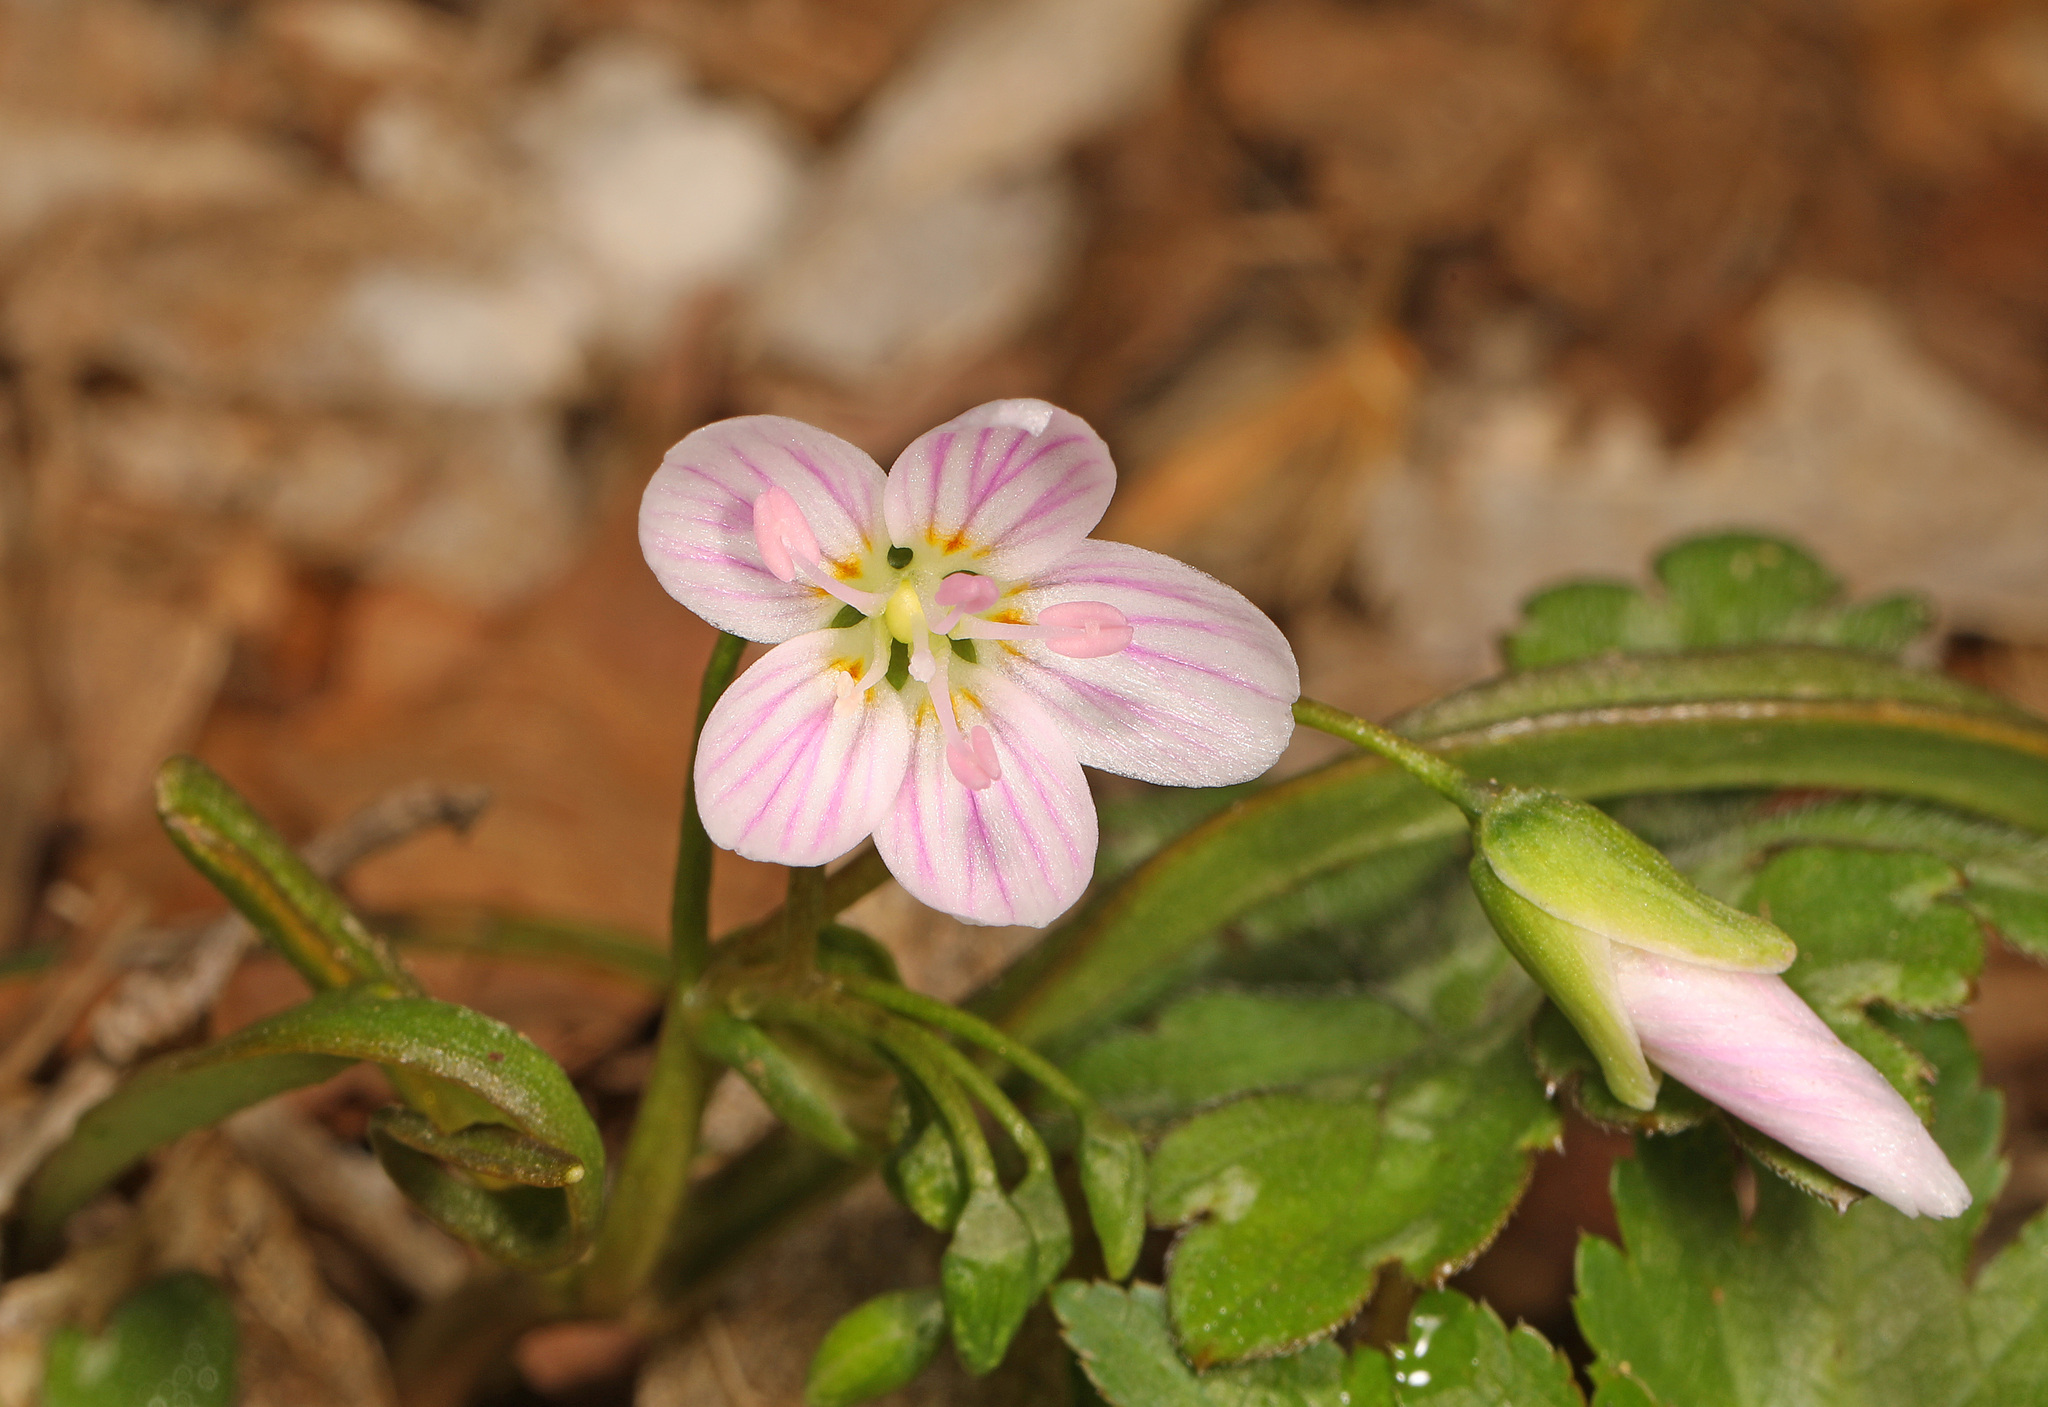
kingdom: Plantae
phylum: Tracheophyta
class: Magnoliopsida
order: Caryophyllales
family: Montiaceae
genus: Claytonia
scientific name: Claytonia virginica
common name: Virginia springbeauty
